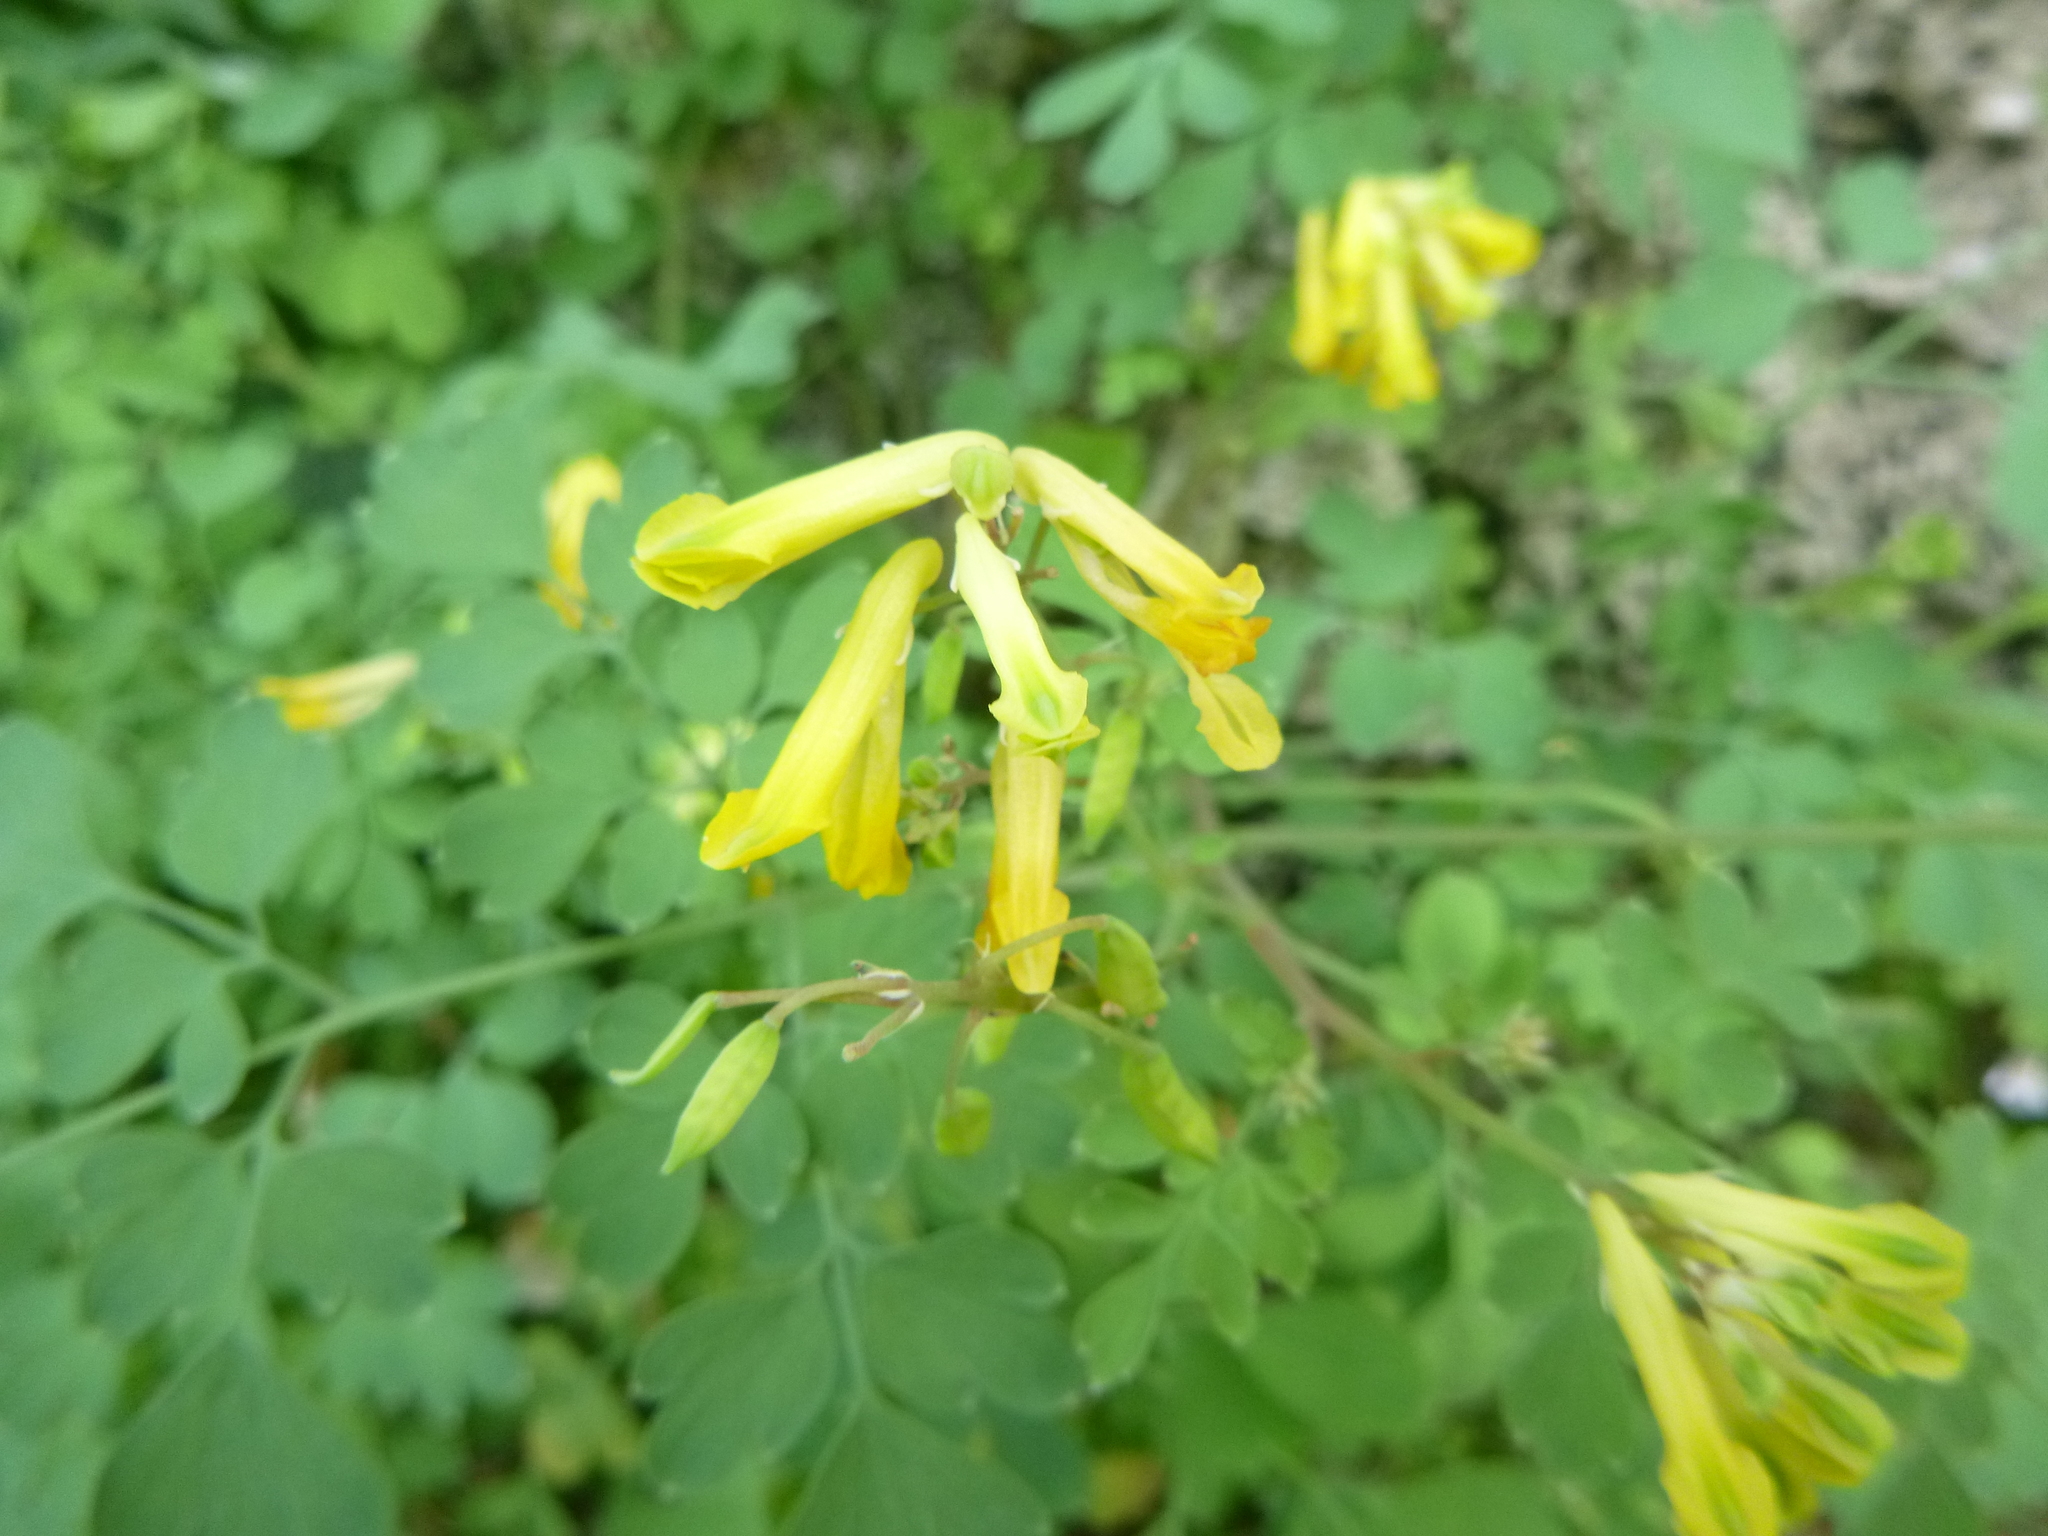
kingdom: Plantae
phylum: Tracheophyta
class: Magnoliopsida
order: Ranunculales
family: Papaveraceae
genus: Pseudofumaria
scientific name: Pseudofumaria lutea
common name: Yellow corydalis
